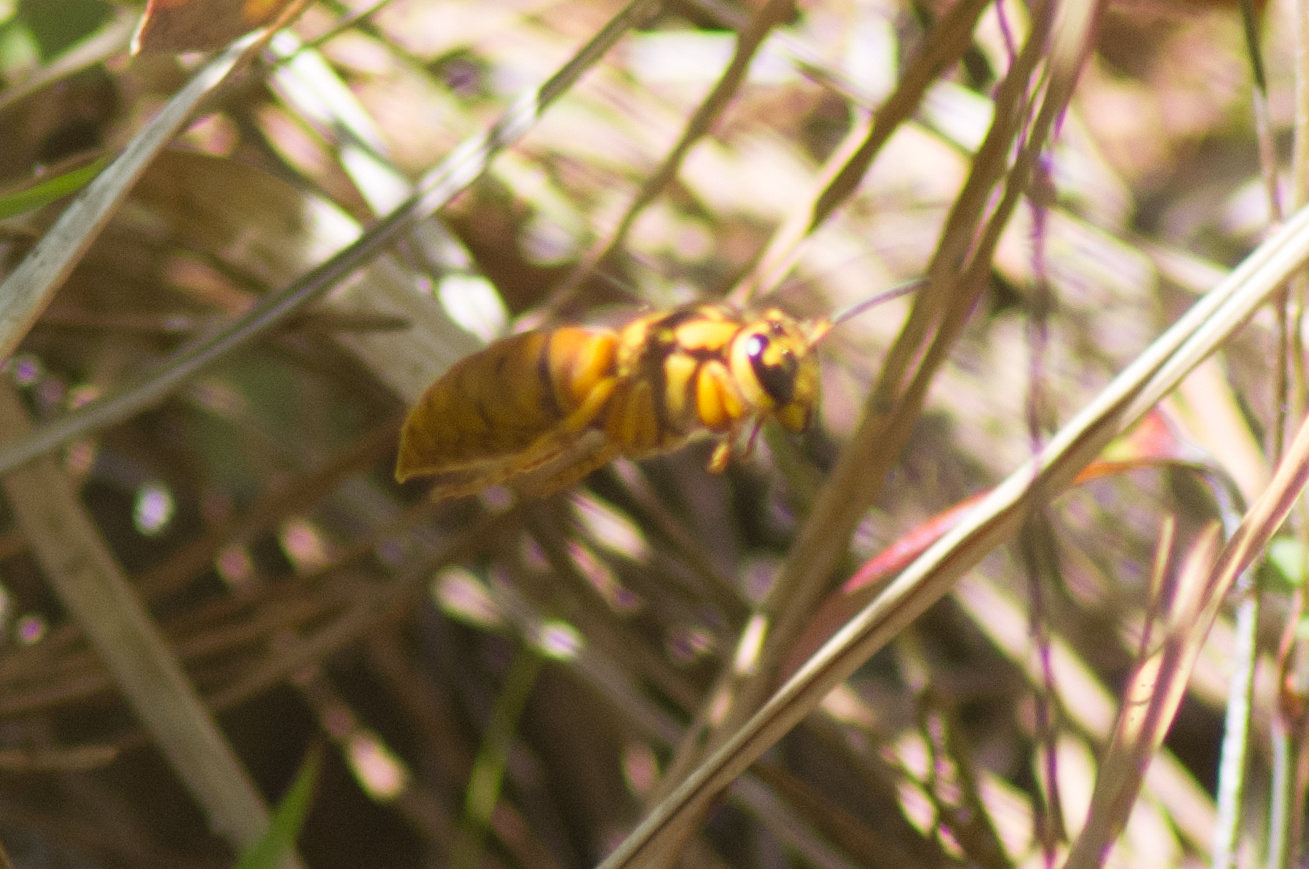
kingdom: Animalia
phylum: Arthropoda
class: Insecta
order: Hymenoptera
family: Vespidae
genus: Vespula
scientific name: Vespula squamosa
